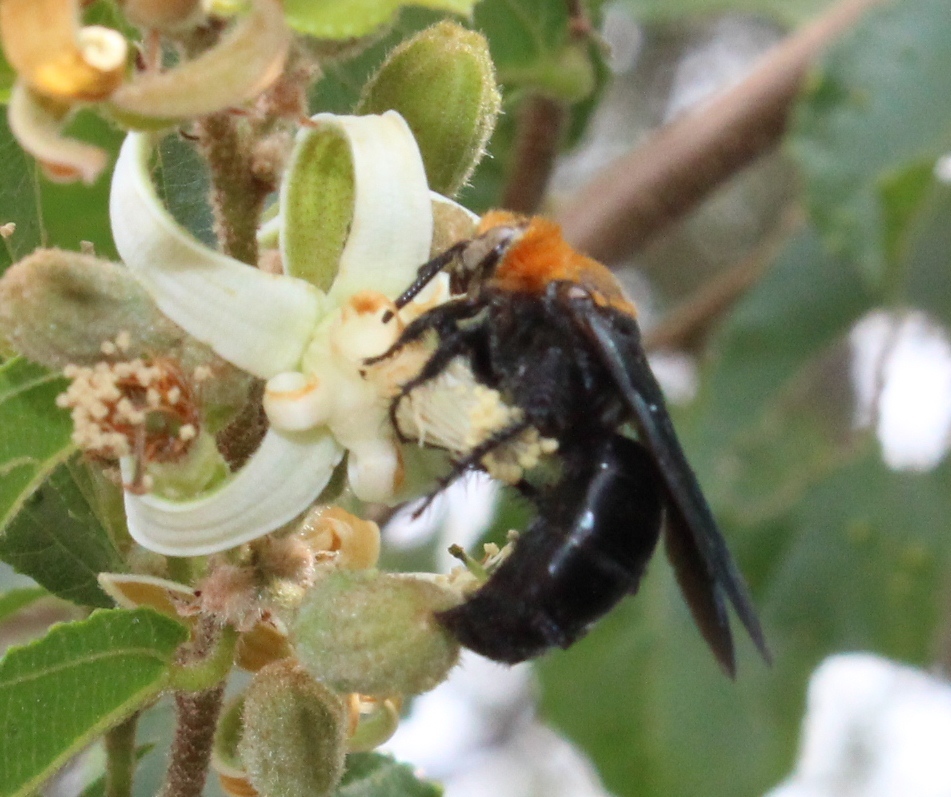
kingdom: Animalia
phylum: Arthropoda
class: Insecta
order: Hymenoptera
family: Scoliidae
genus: Campsomeriella
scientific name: Campsomeriella caelebs
